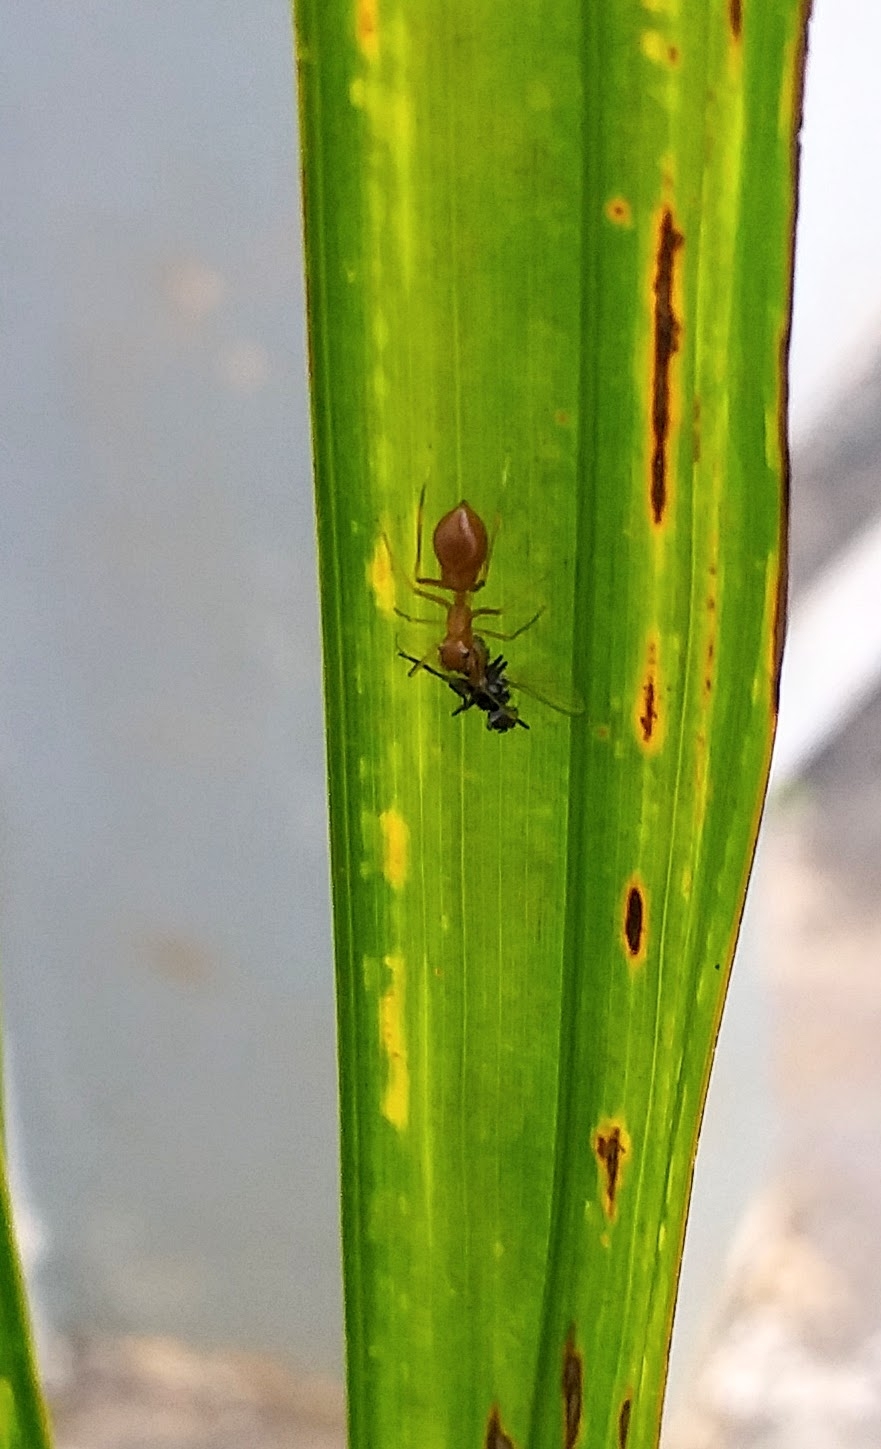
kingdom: Animalia
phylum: Arthropoda
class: Arachnida
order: Araneae
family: Salticidae
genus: Myrmaplata
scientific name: Myrmaplata plataleoides
